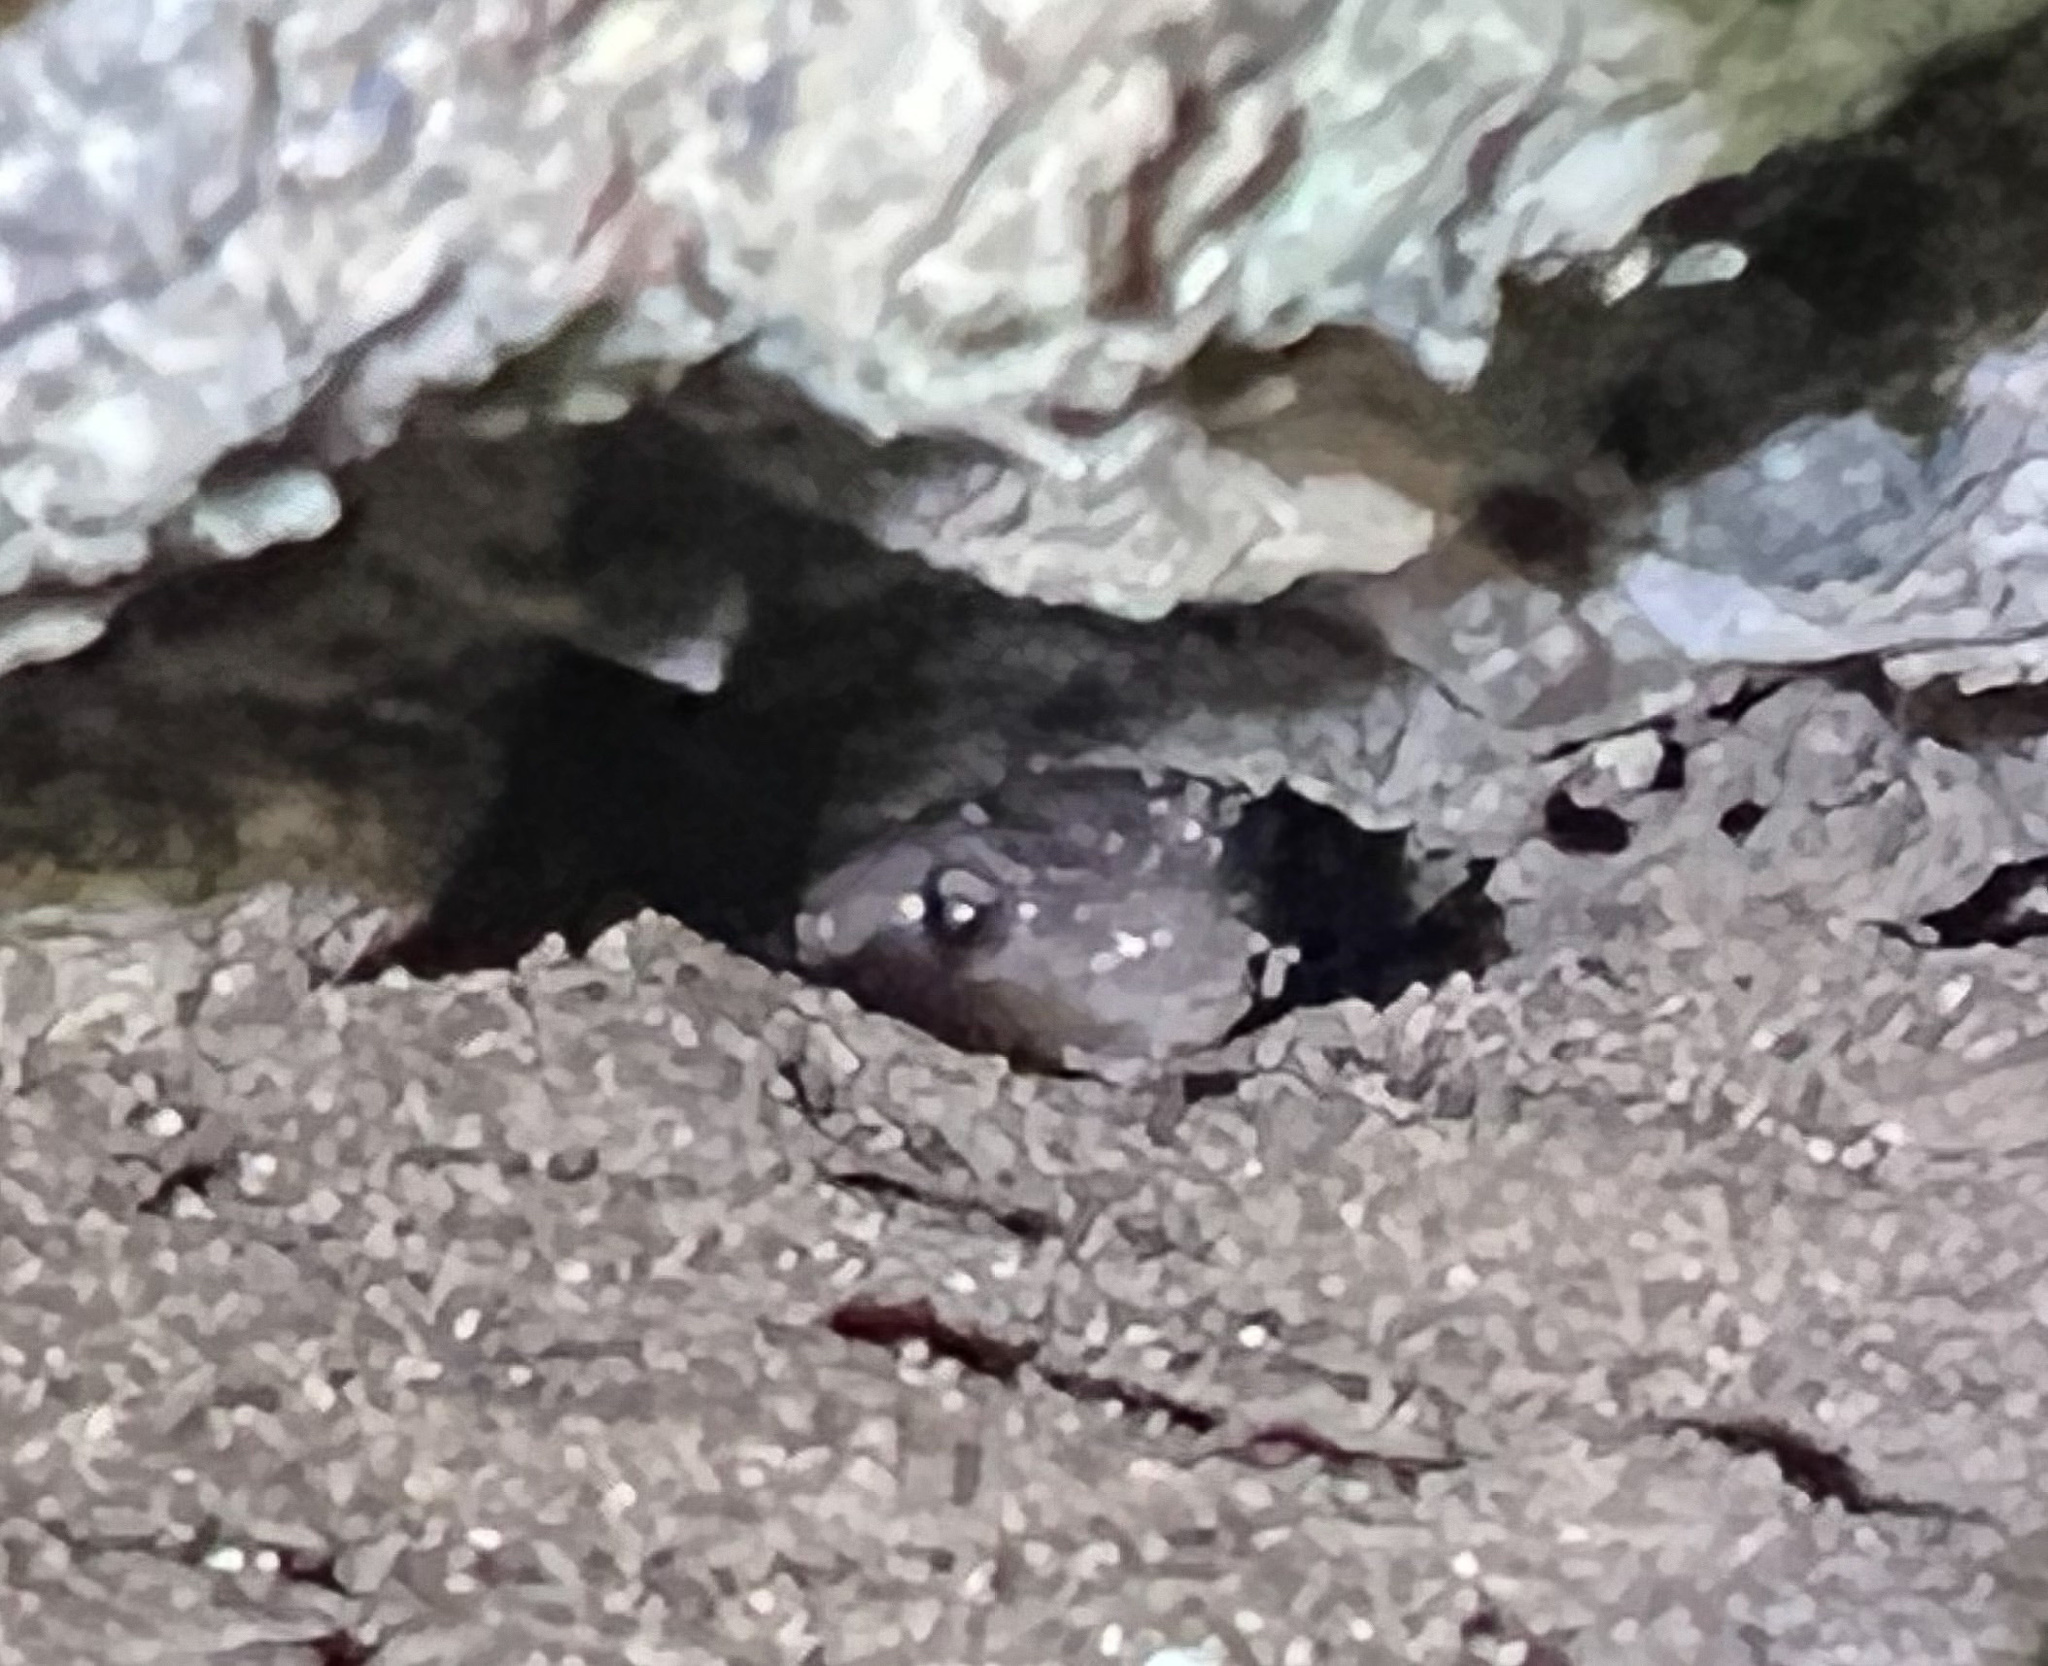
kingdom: Animalia
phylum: Chordata
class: Amphibia
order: Caudata
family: Plethodontidae
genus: Aneides
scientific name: Aneides lugubris
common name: Arboreal salamander
